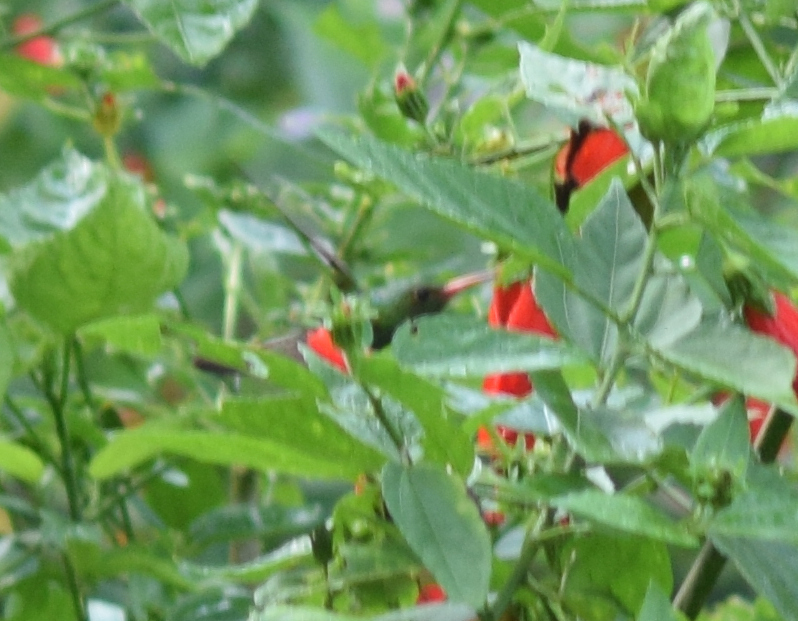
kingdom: Animalia
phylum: Chordata
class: Aves
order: Apodiformes
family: Trochilidae
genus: Amazilia
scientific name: Amazilia tzacatl
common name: Rufous-tailed hummingbird
